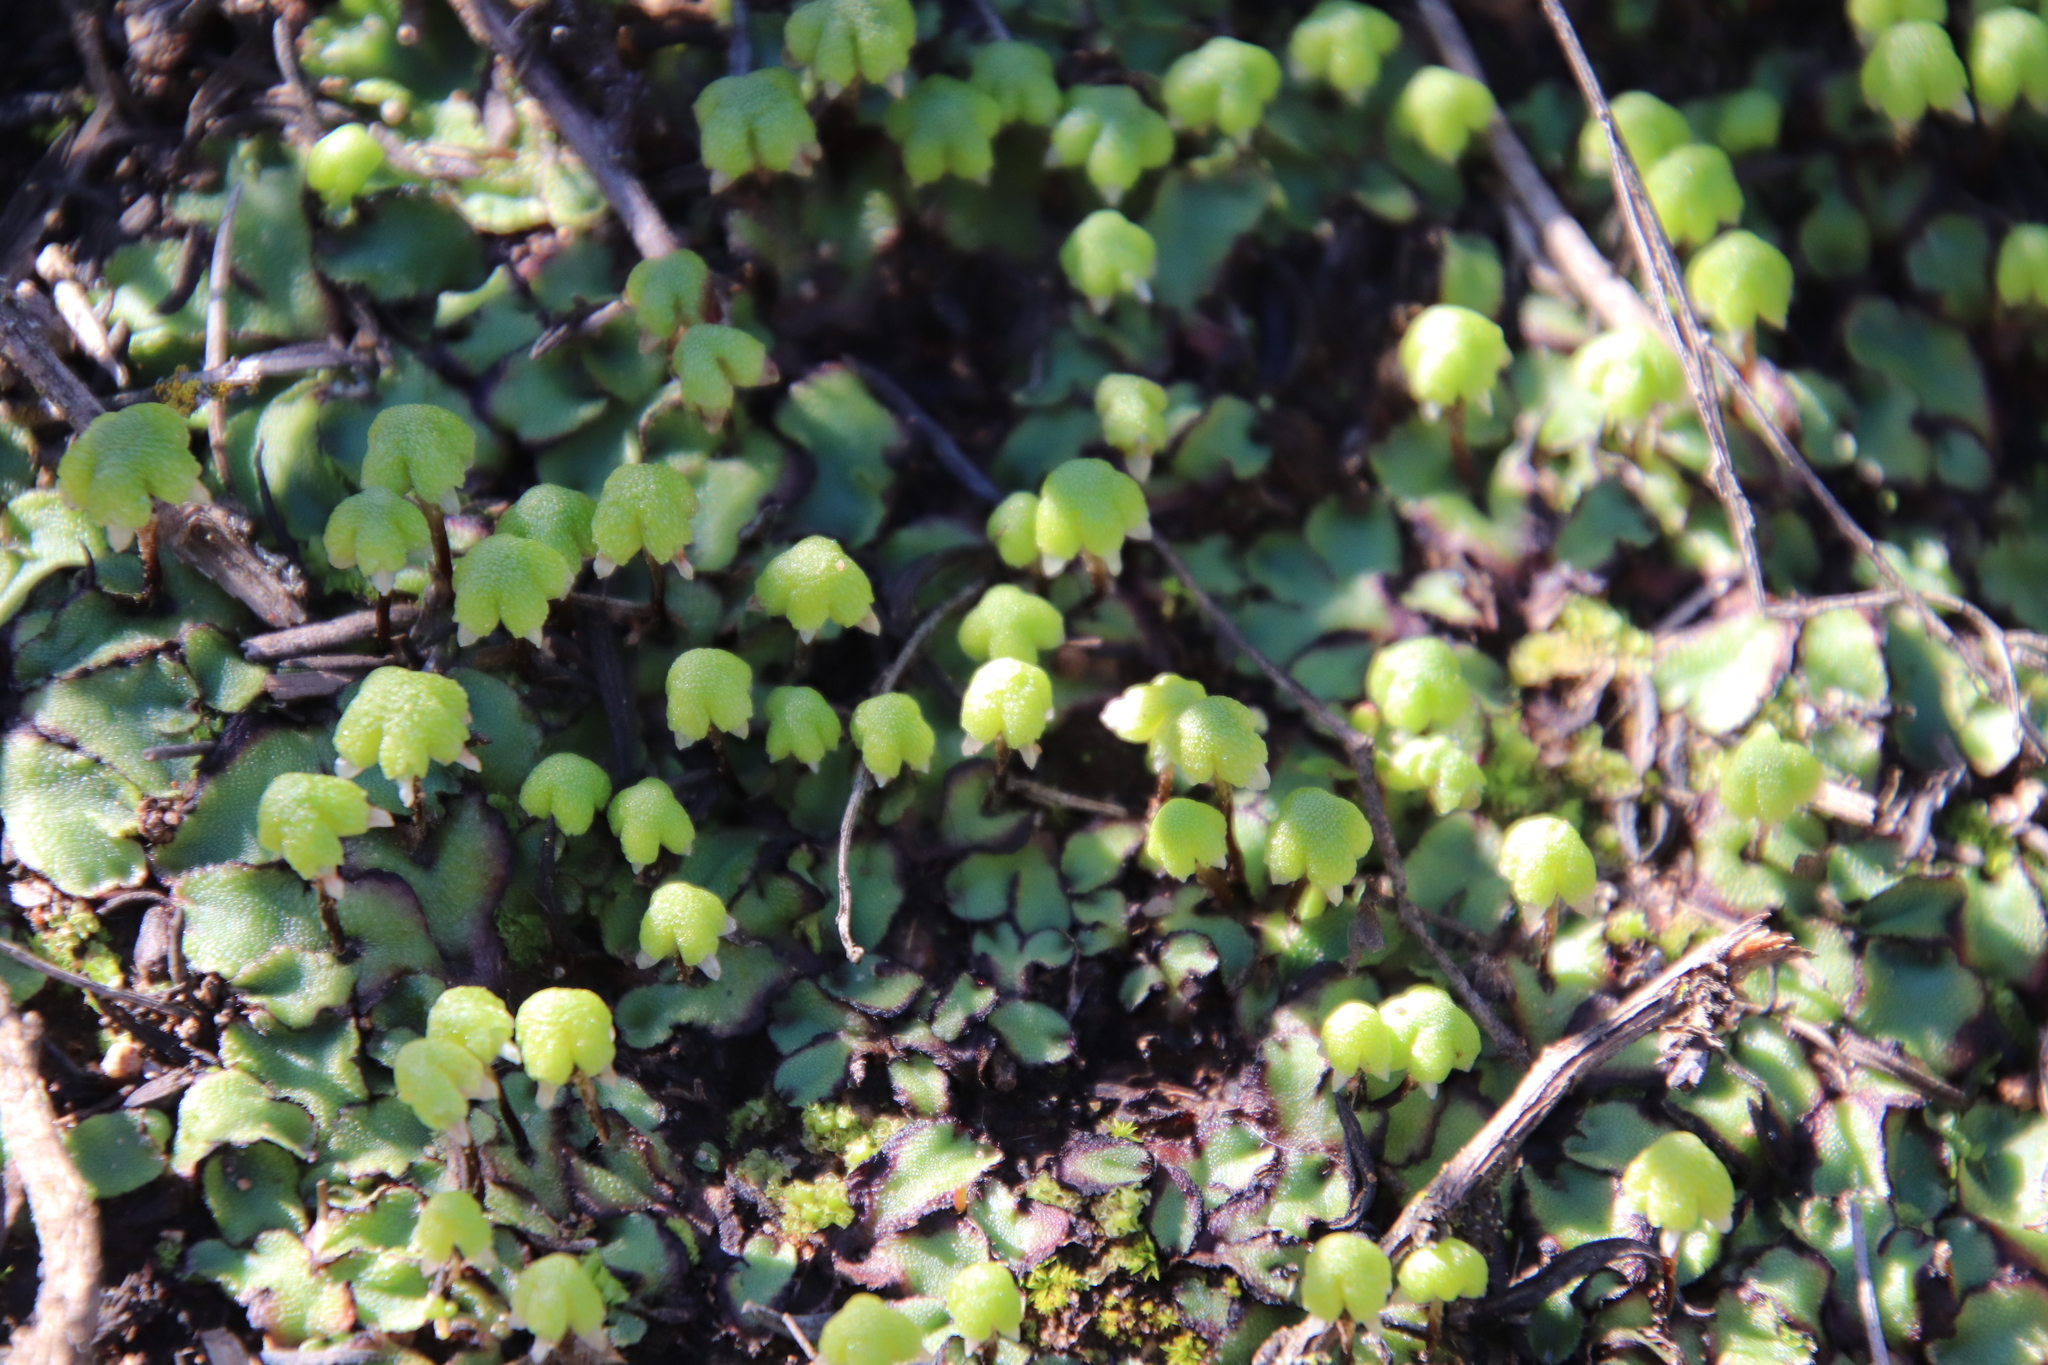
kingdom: Plantae
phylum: Marchantiophyta
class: Marchantiopsida
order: Marchantiales
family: Aytoniaceae
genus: Asterella
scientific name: Asterella californica
